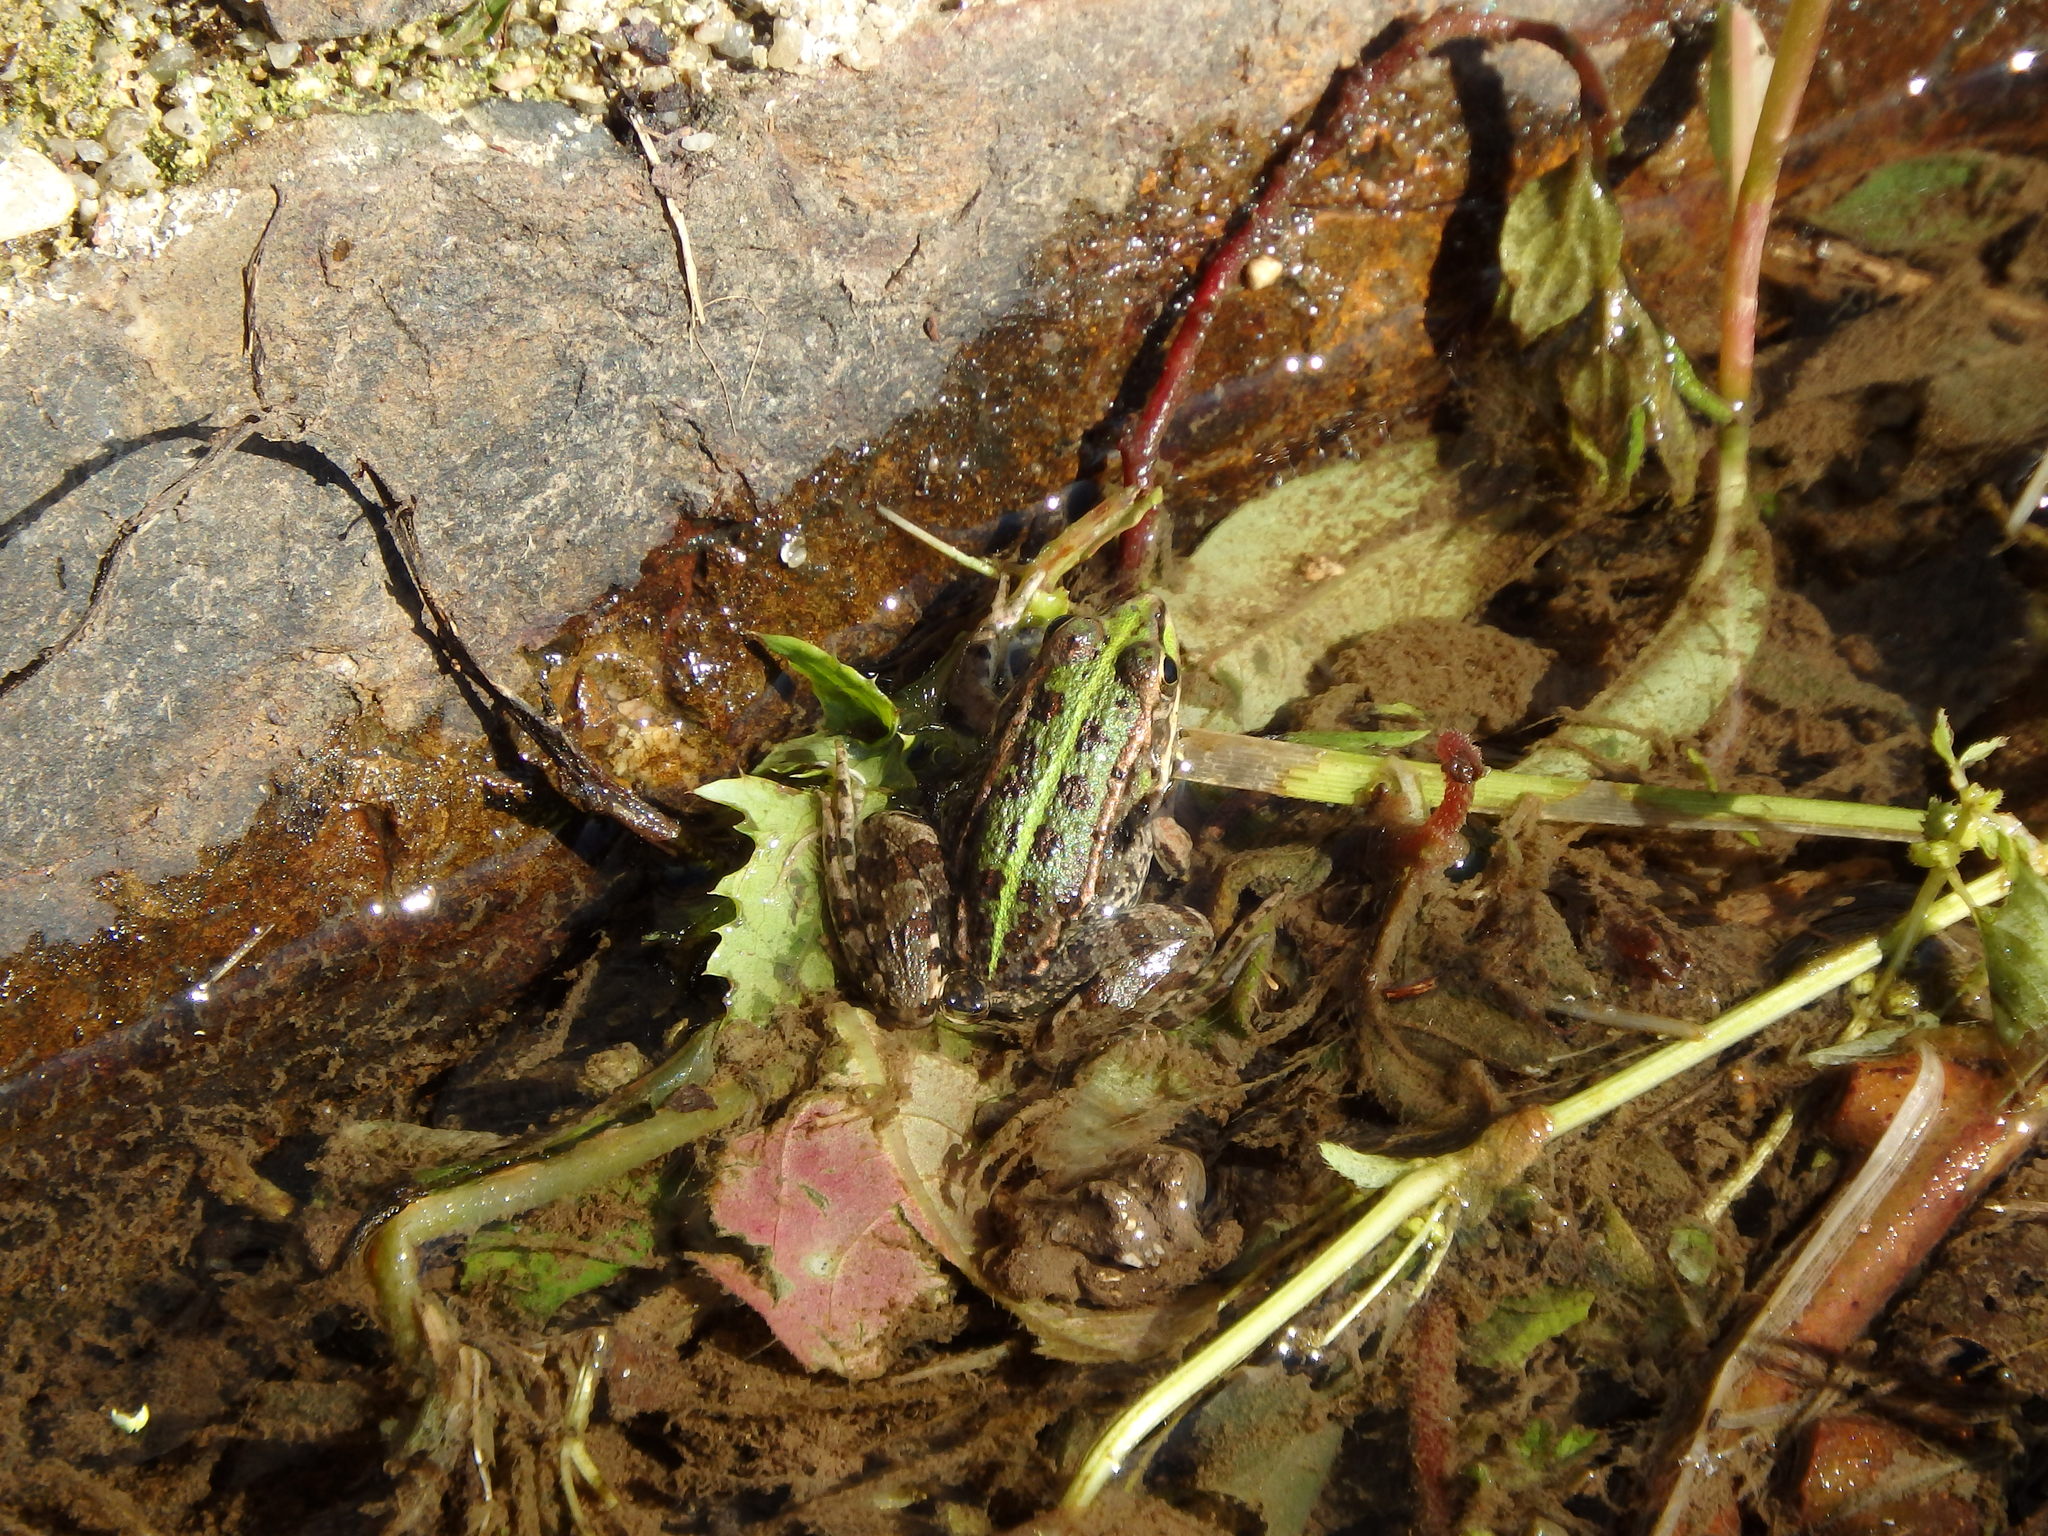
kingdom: Animalia
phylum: Chordata
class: Amphibia
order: Anura
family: Ranidae
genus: Pelophylax
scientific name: Pelophylax perezi
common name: Perez's frog
